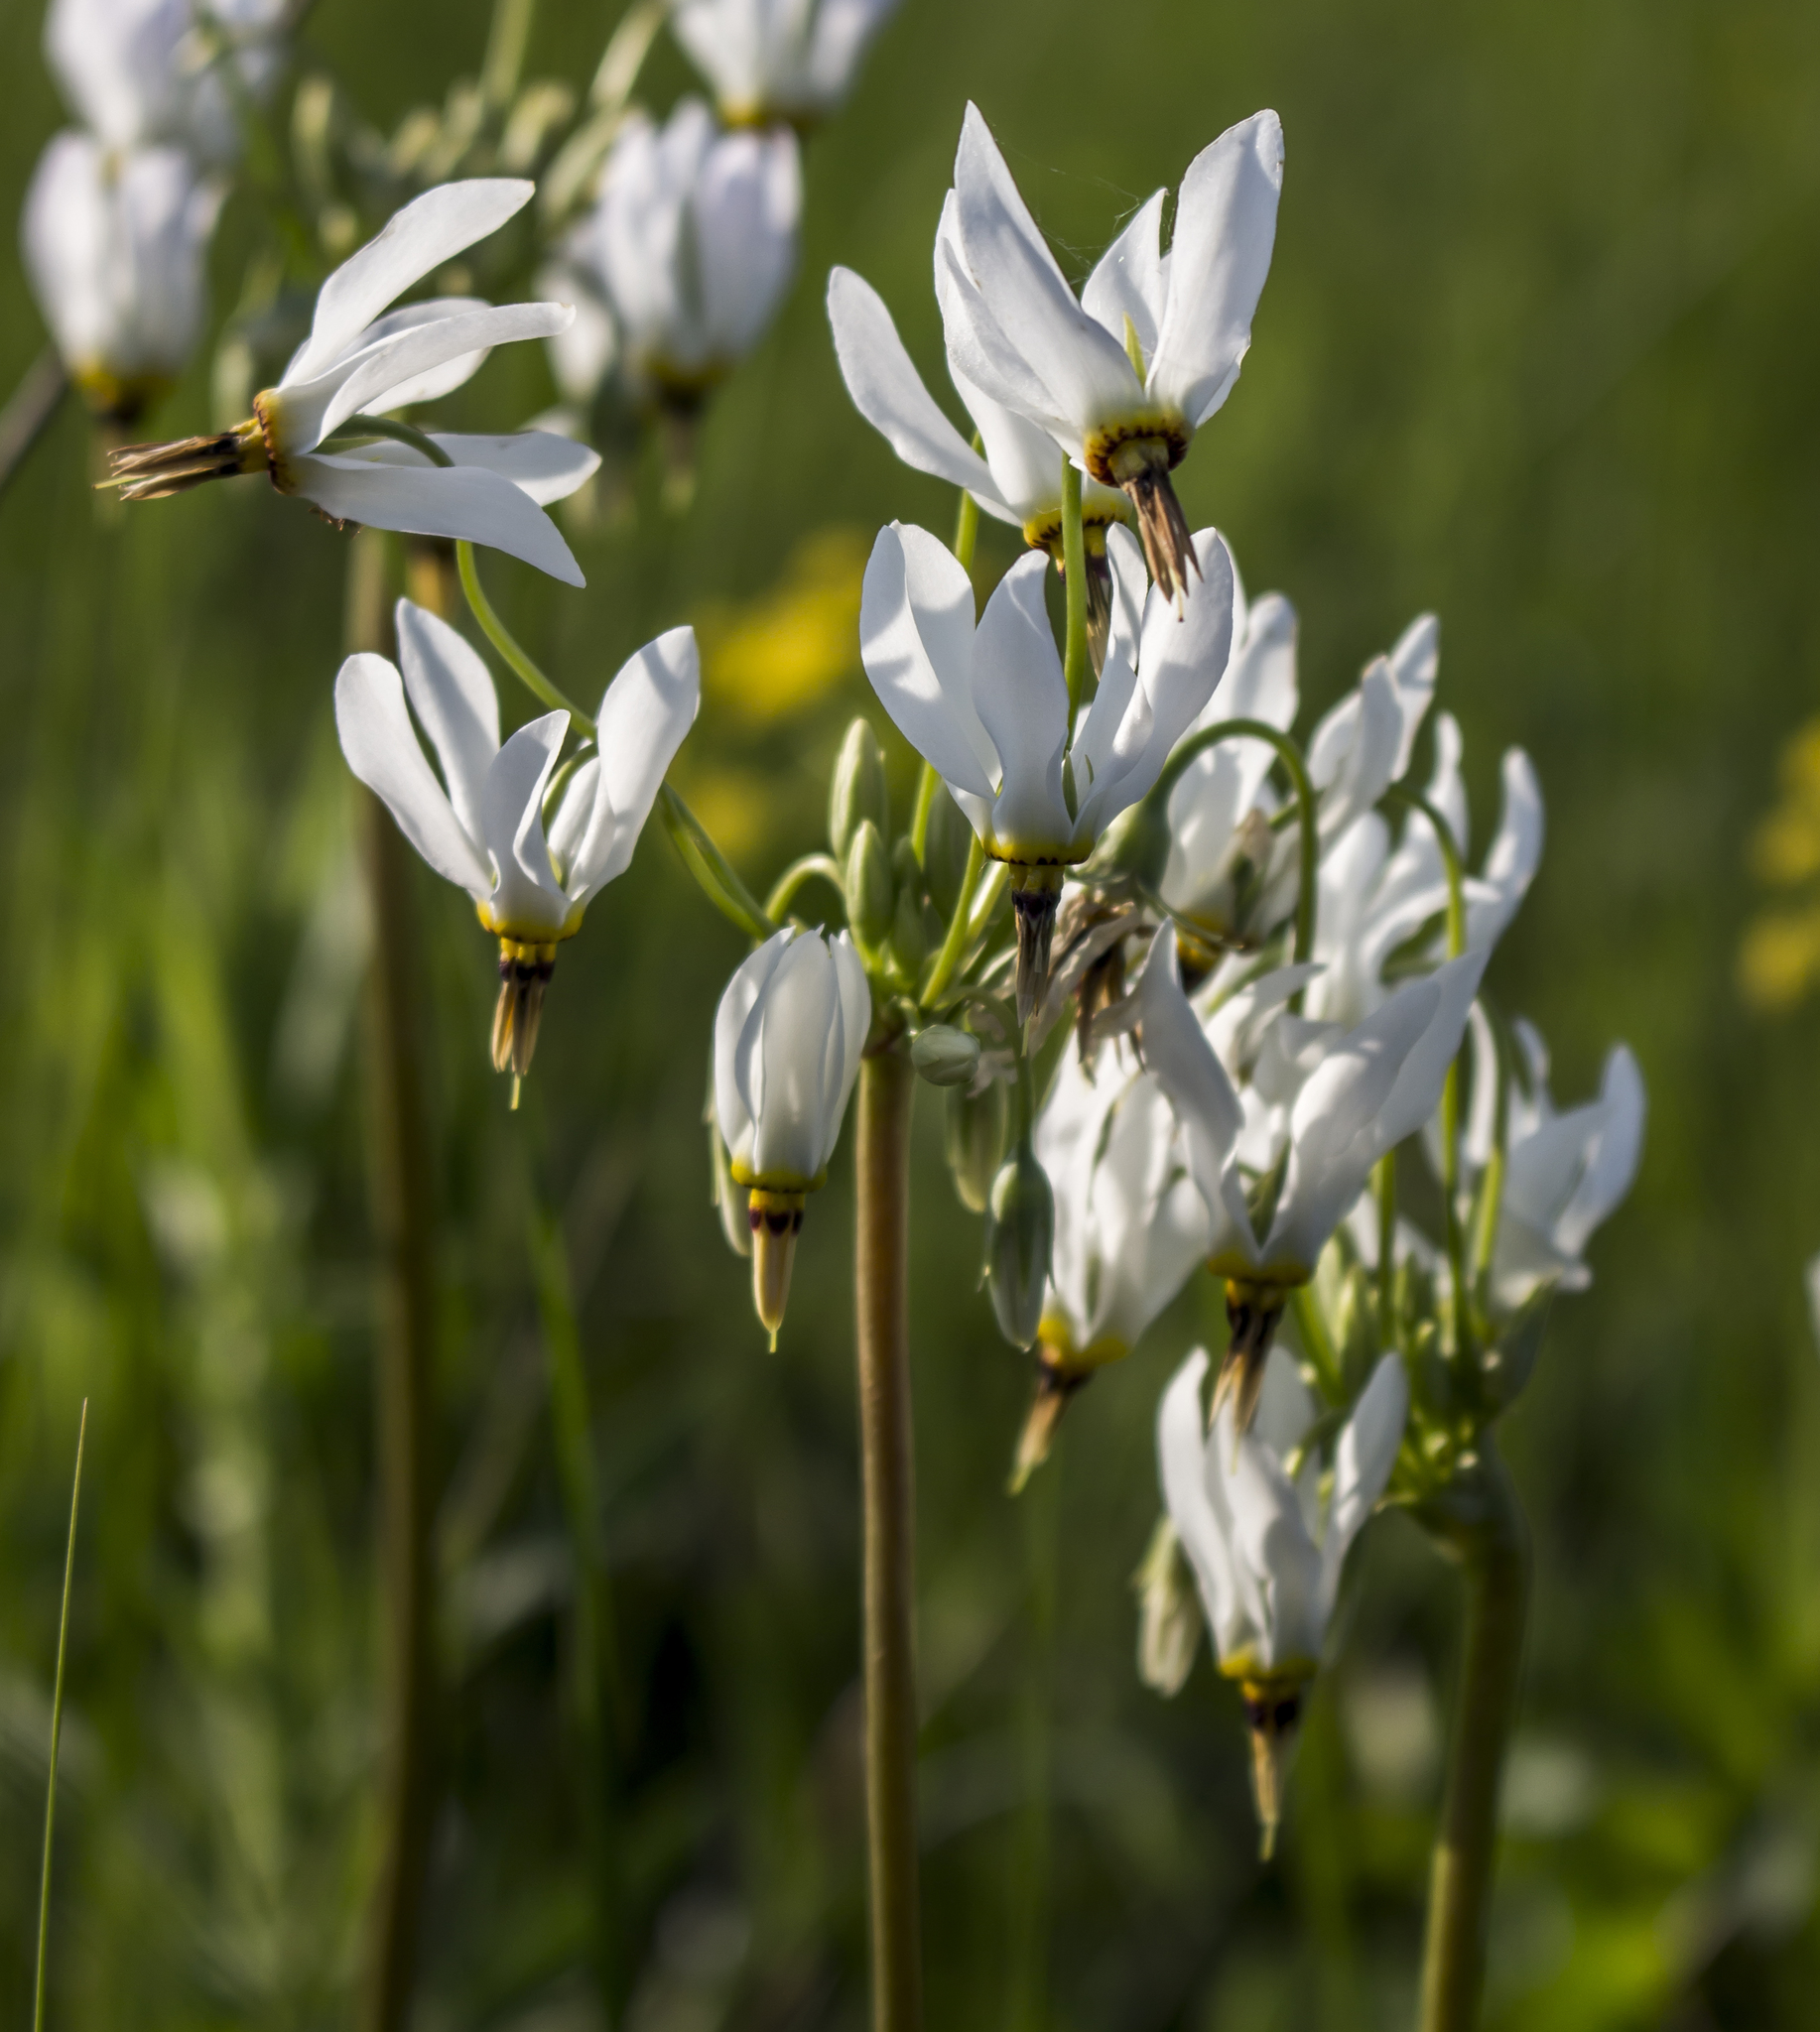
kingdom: Plantae
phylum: Tracheophyta
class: Magnoliopsida
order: Ericales
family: Primulaceae
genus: Dodecatheon
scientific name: Dodecatheon meadia
